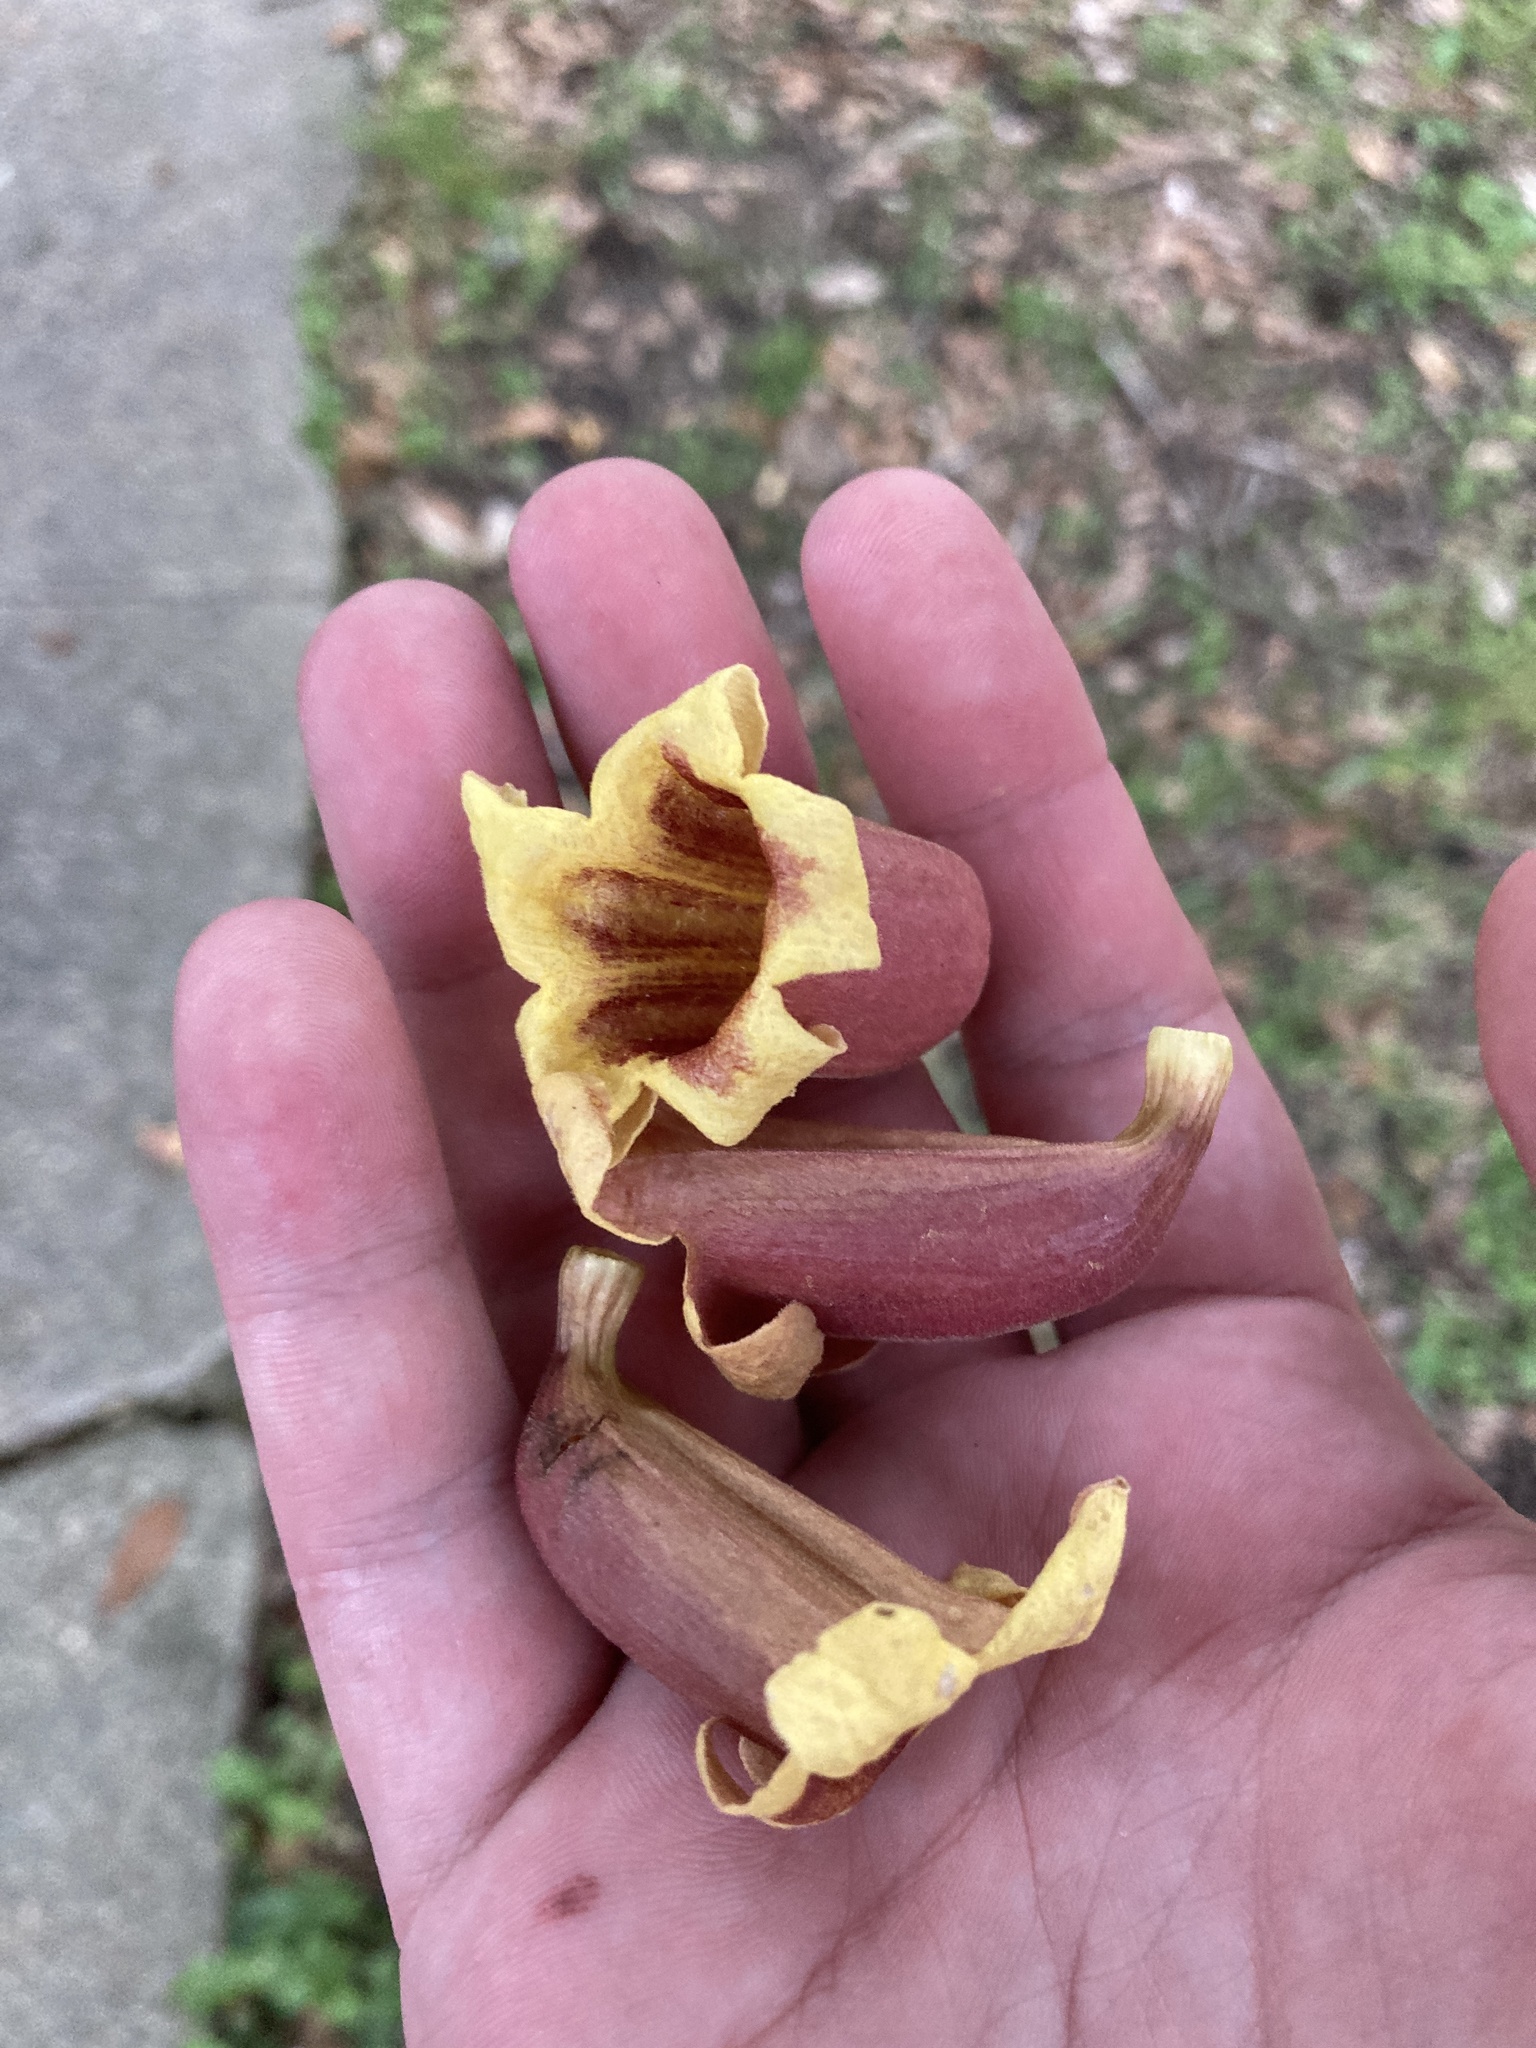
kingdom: Plantae
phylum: Tracheophyta
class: Magnoliopsida
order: Lamiales
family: Bignoniaceae
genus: Bignonia
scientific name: Bignonia capreolata
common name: Crossvine
